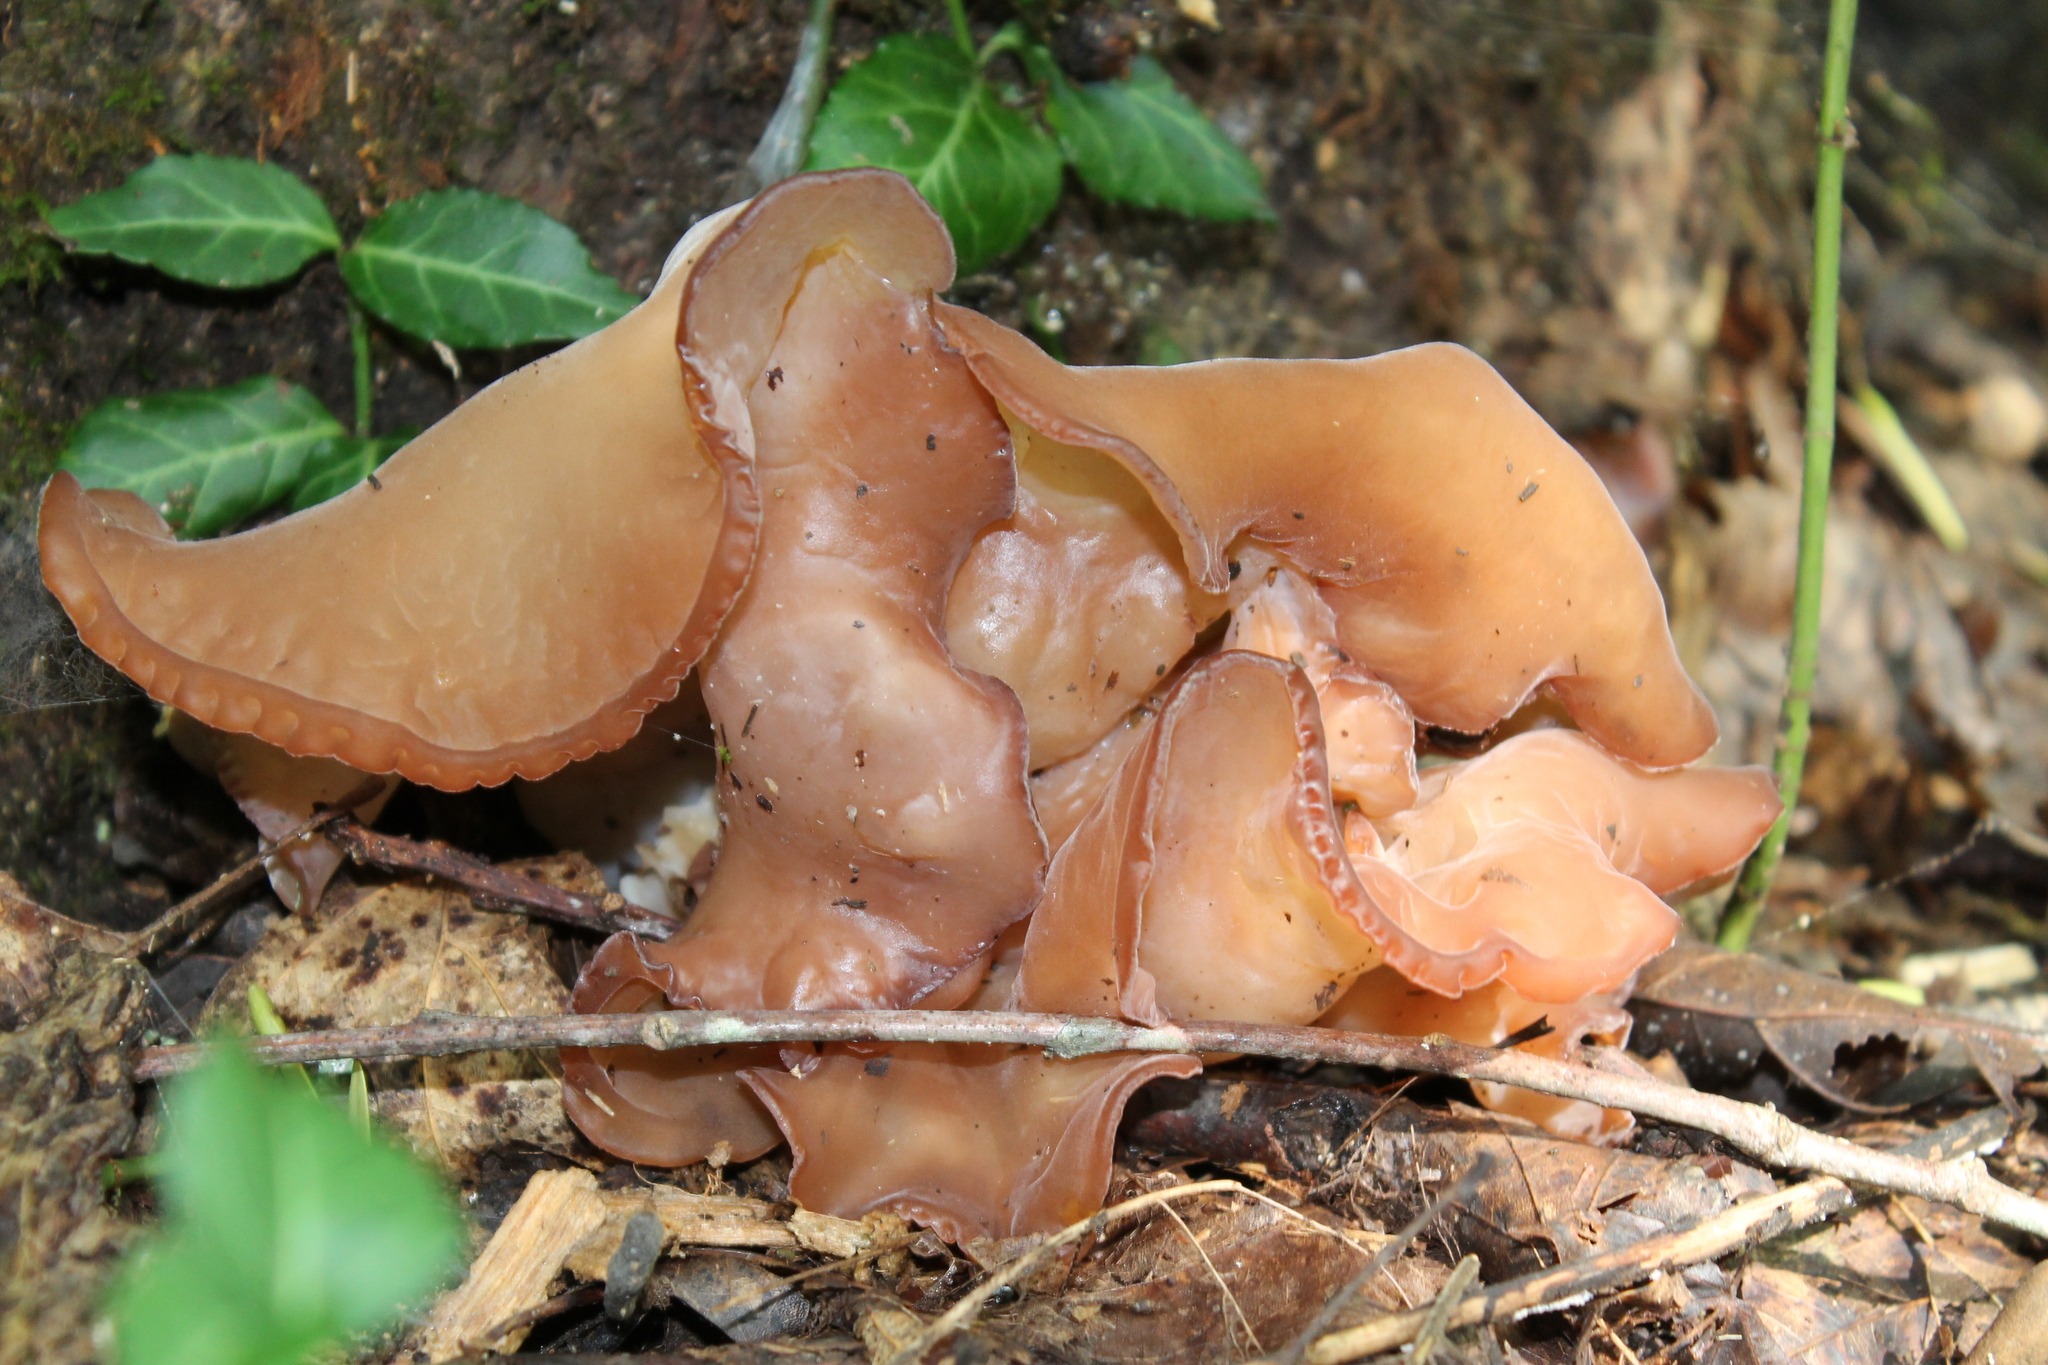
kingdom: Fungi
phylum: Basidiomycota
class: Agaricomycetes
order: Auriculariales
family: Auriculariaceae
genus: Auricularia
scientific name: Auricularia americana
